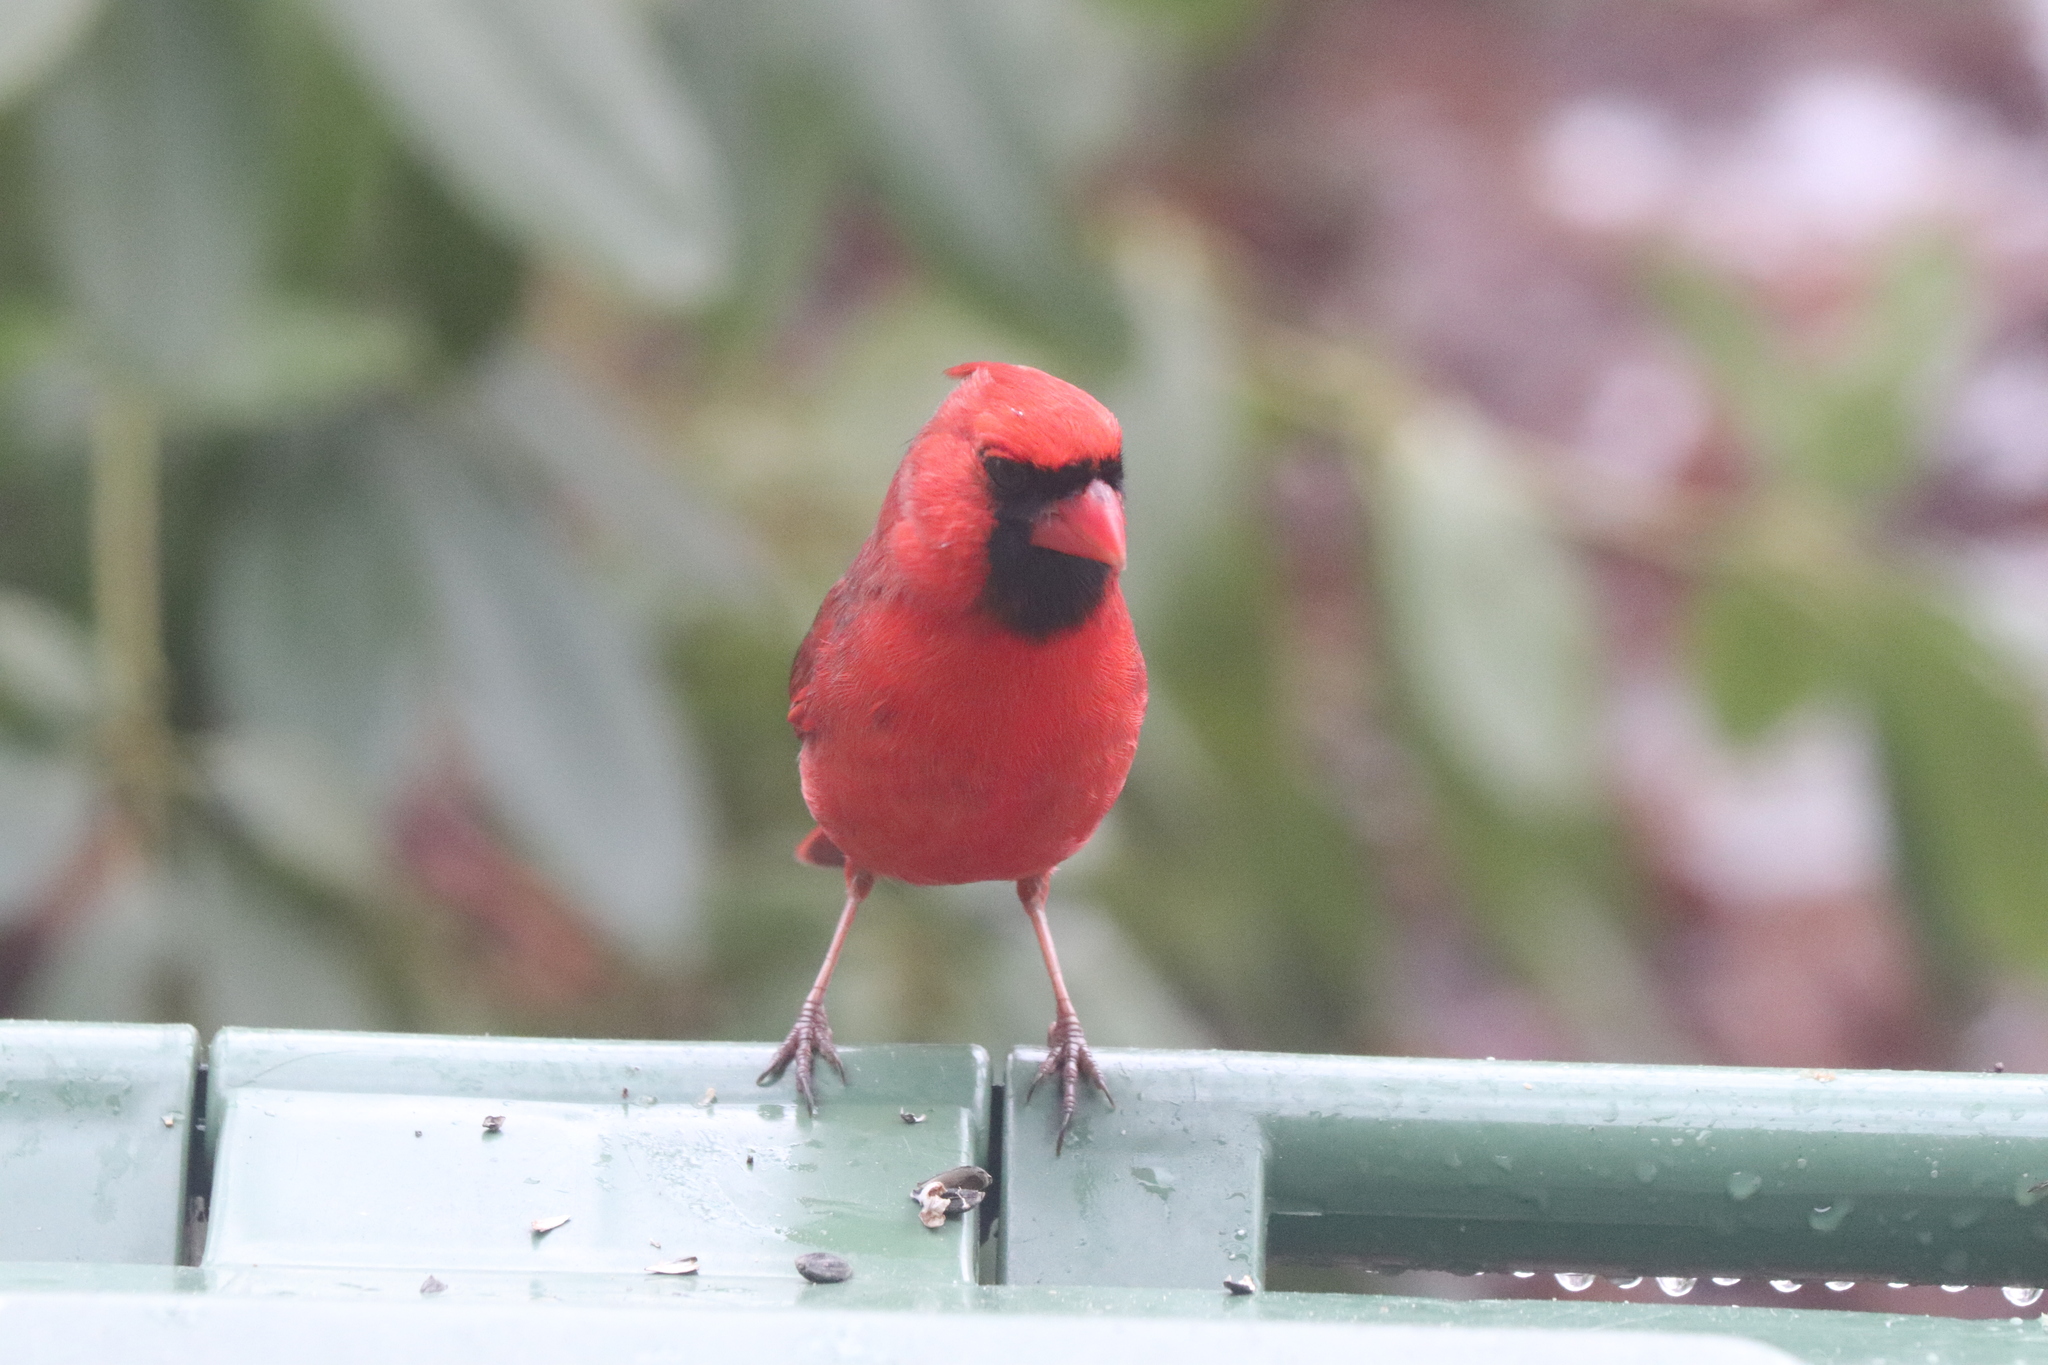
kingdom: Animalia
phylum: Chordata
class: Aves
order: Passeriformes
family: Cardinalidae
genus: Cardinalis
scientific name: Cardinalis cardinalis
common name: Northern cardinal
